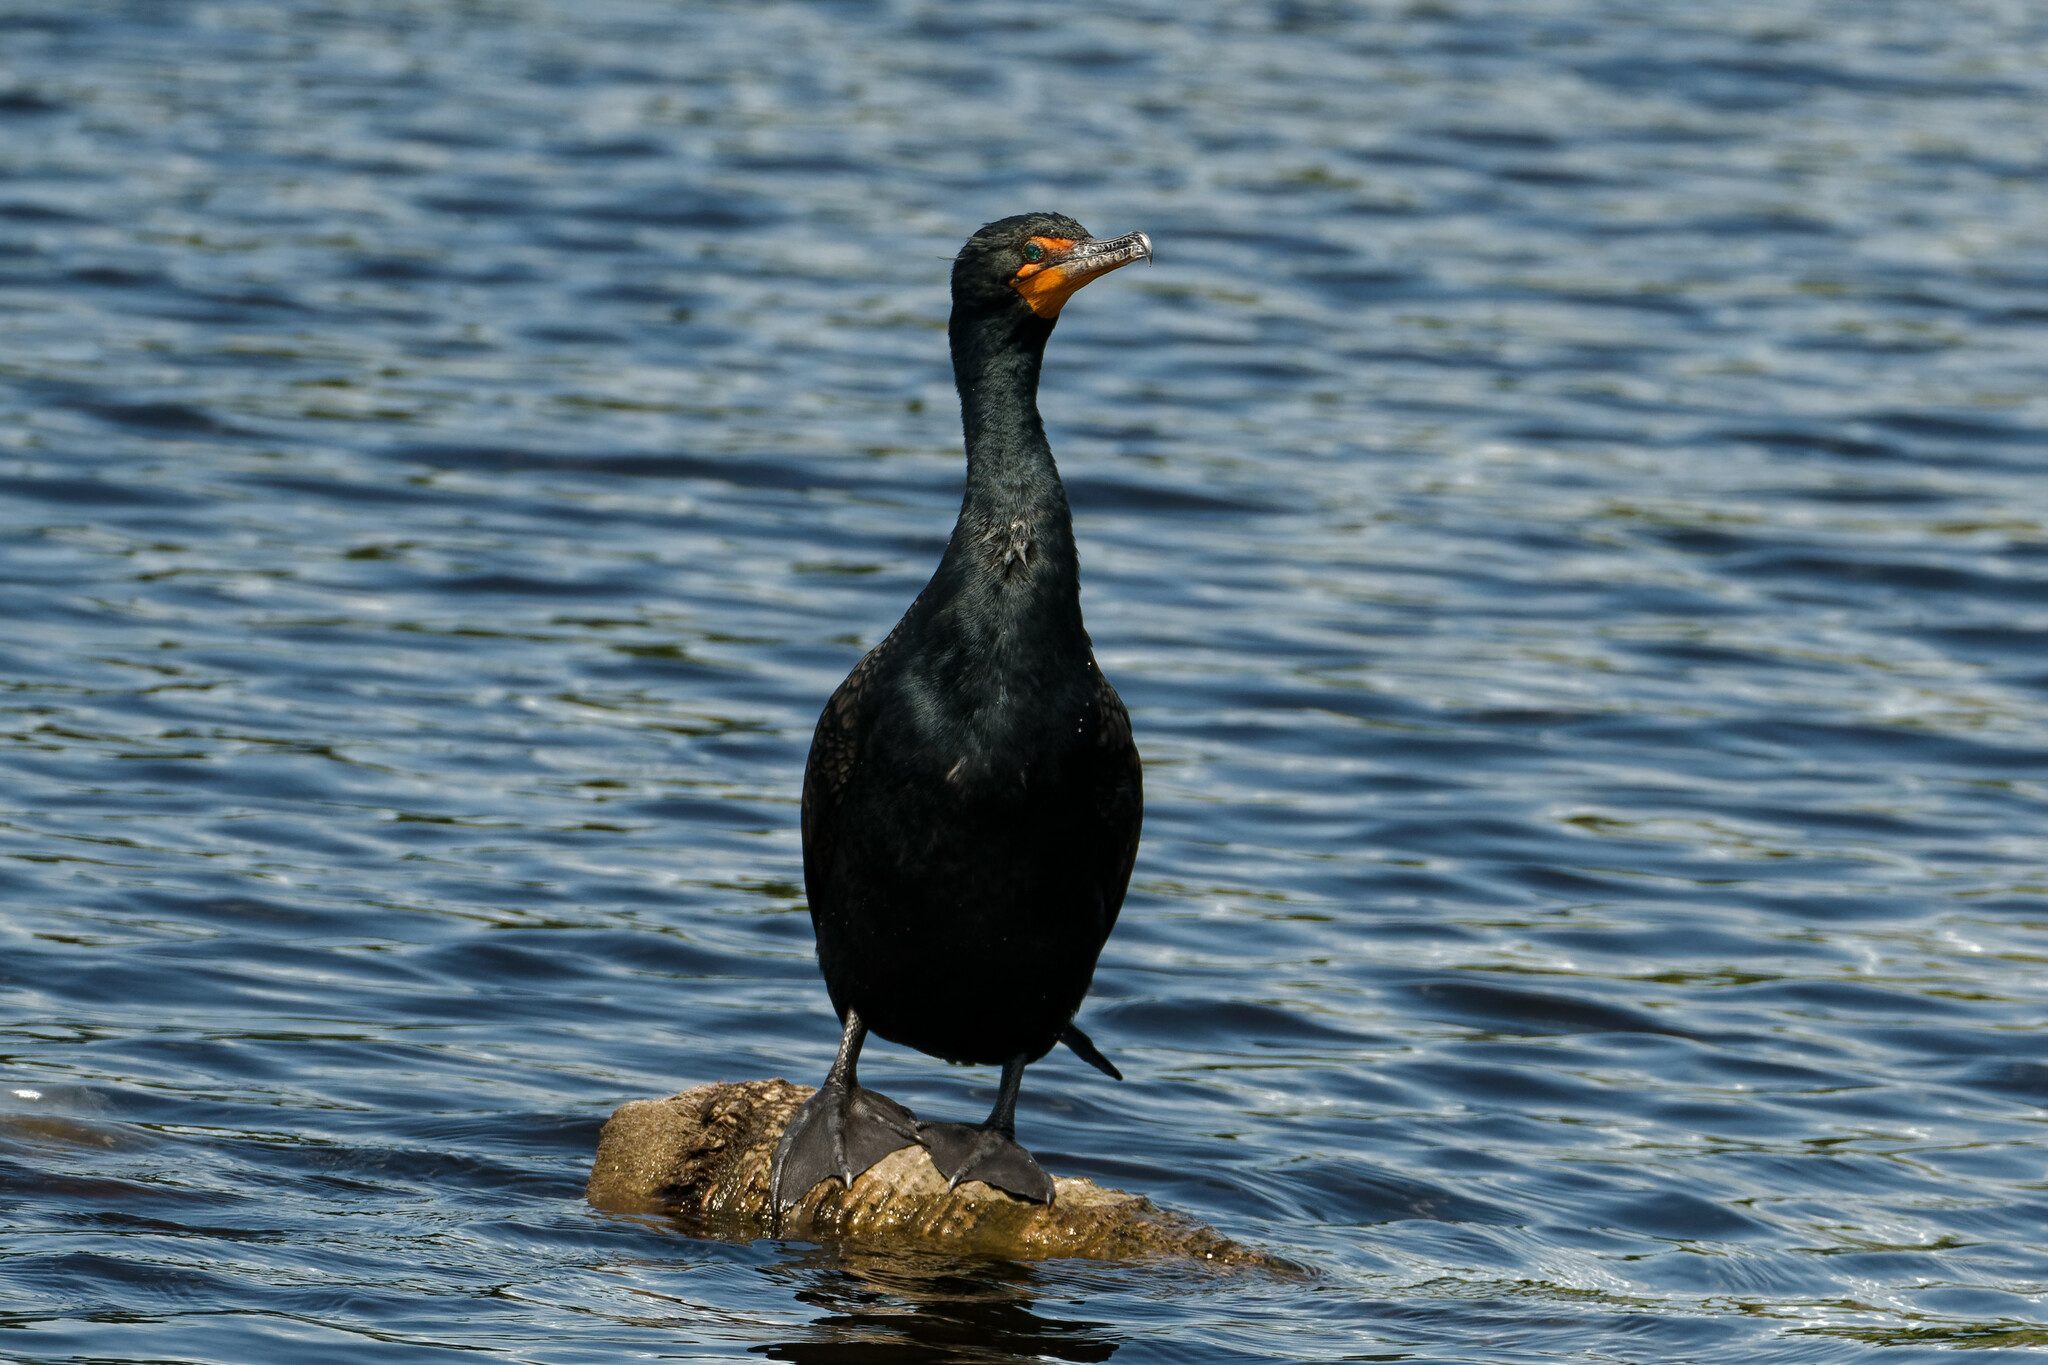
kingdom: Animalia
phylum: Chordata
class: Aves
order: Suliformes
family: Phalacrocoracidae
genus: Phalacrocorax
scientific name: Phalacrocorax auritus
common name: Double-crested cormorant
